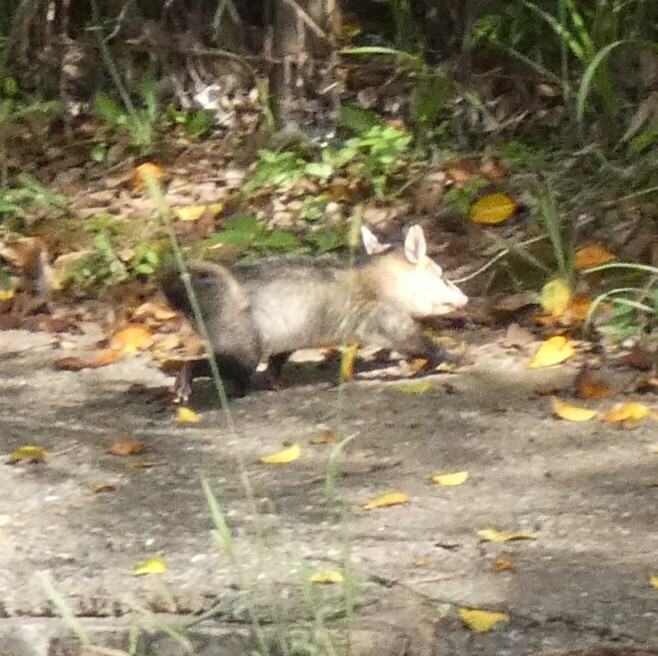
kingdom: Animalia
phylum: Chordata
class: Mammalia
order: Didelphimorphia
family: Didelphidae
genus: Didelphis
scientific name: Didelphis albiventris
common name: White-eared opossum
